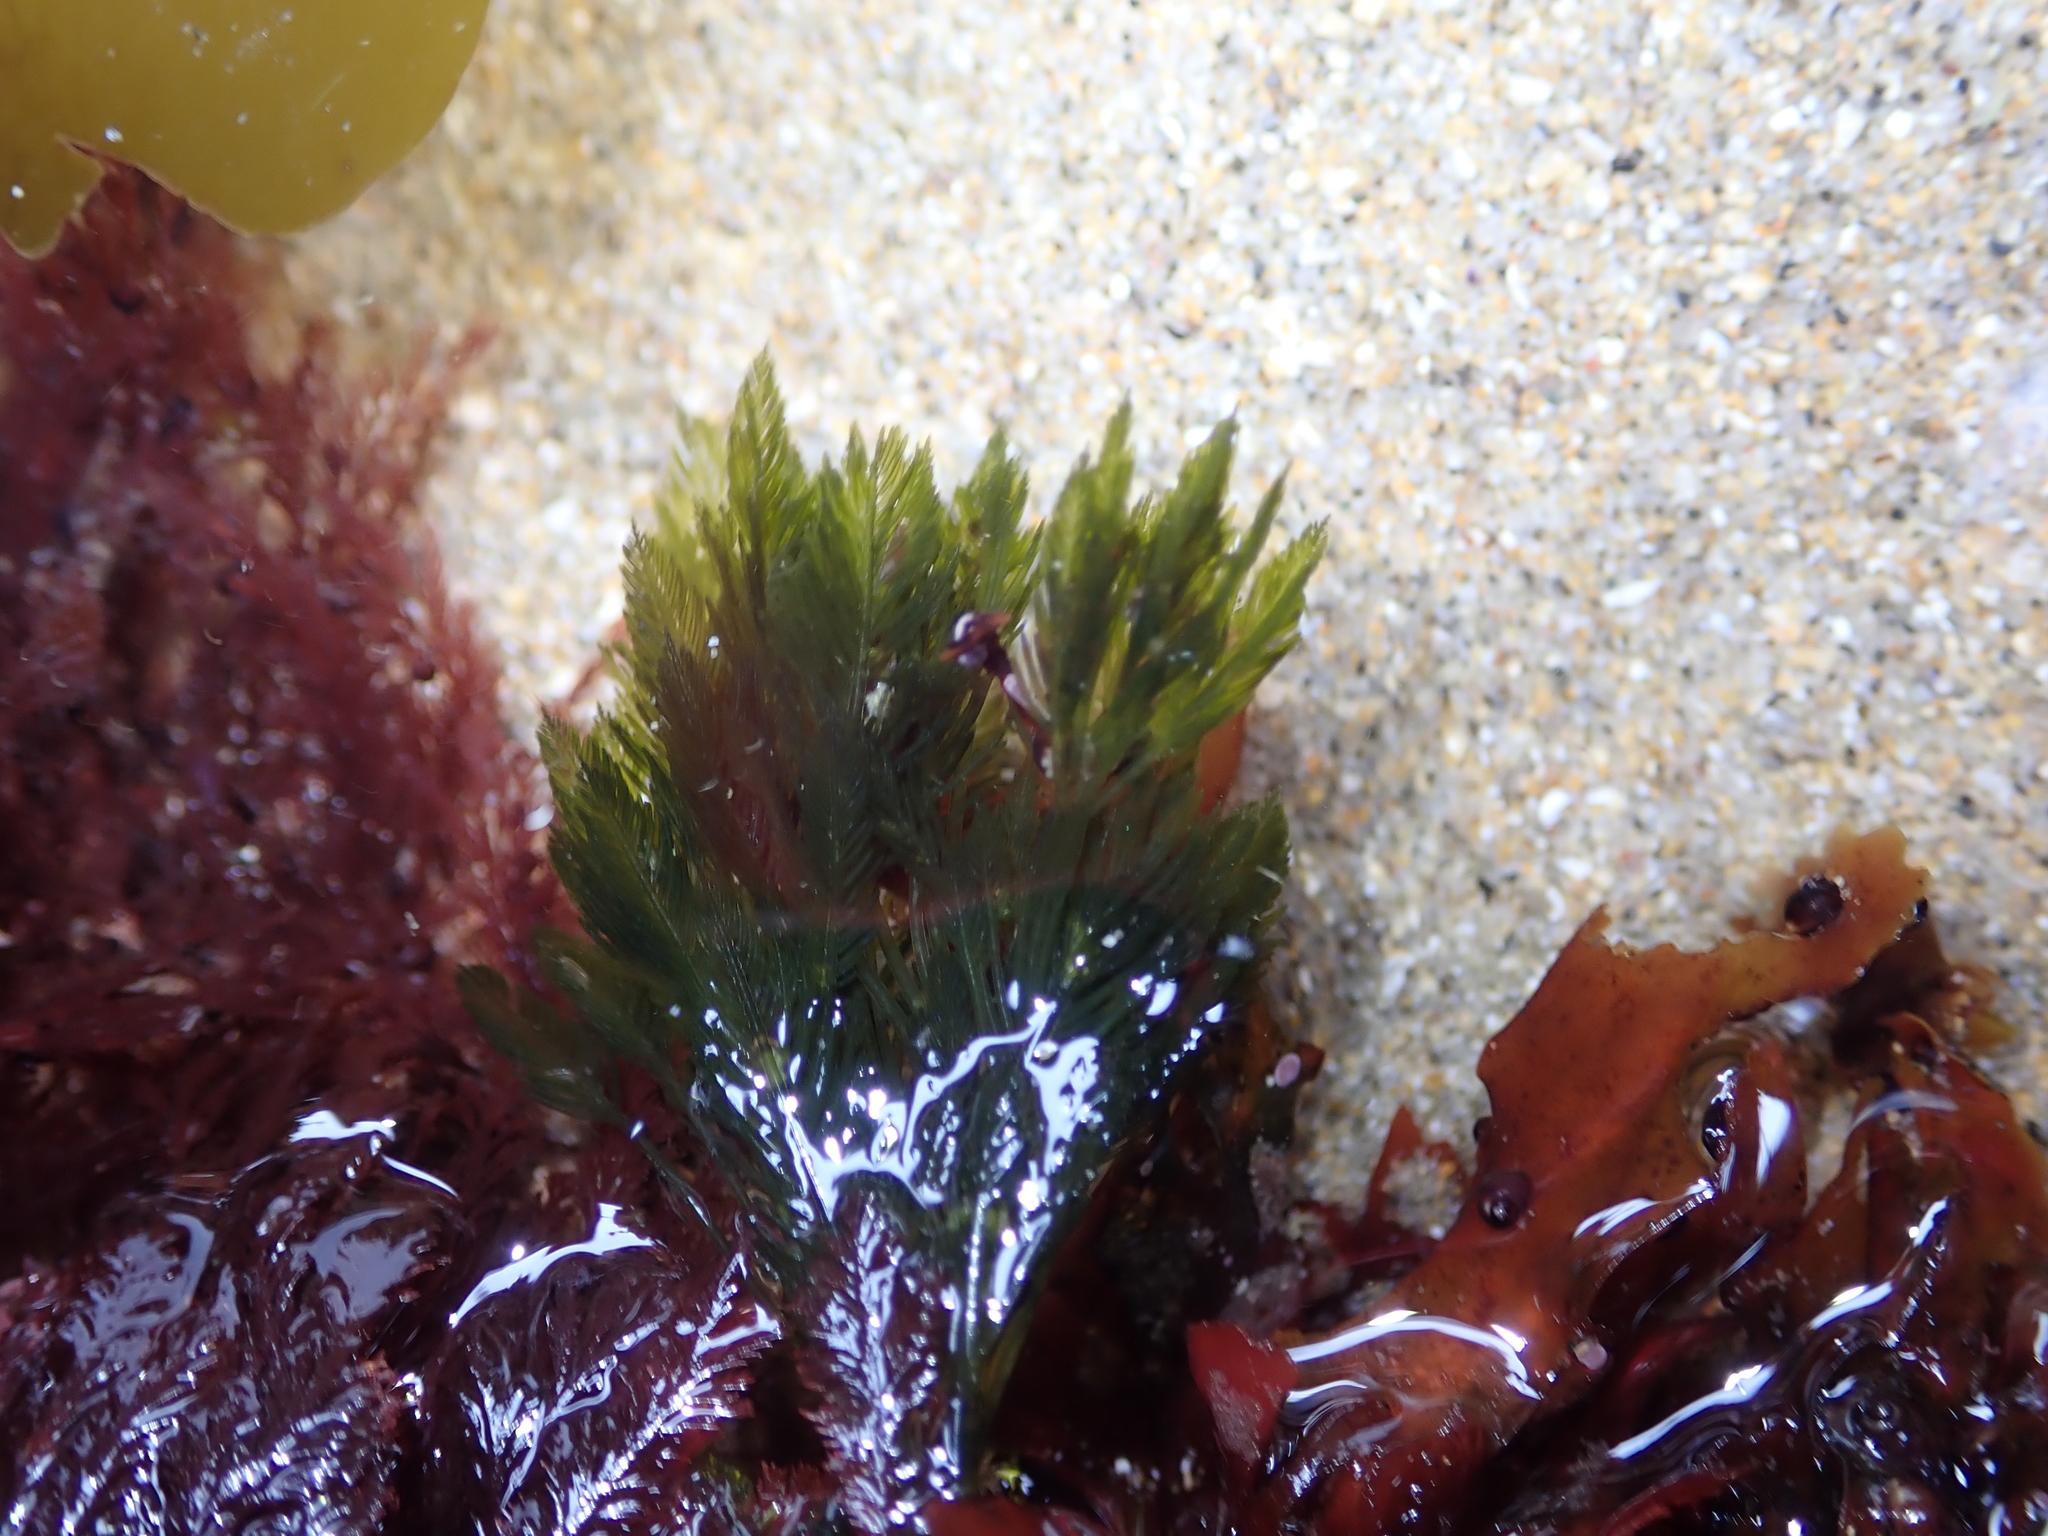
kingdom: Plantae
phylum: Chlorophyta
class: Ulvophyceae
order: Bryopsidales
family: Bryopsidaceae
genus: Bryopsis
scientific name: Bryopsis corticulans
